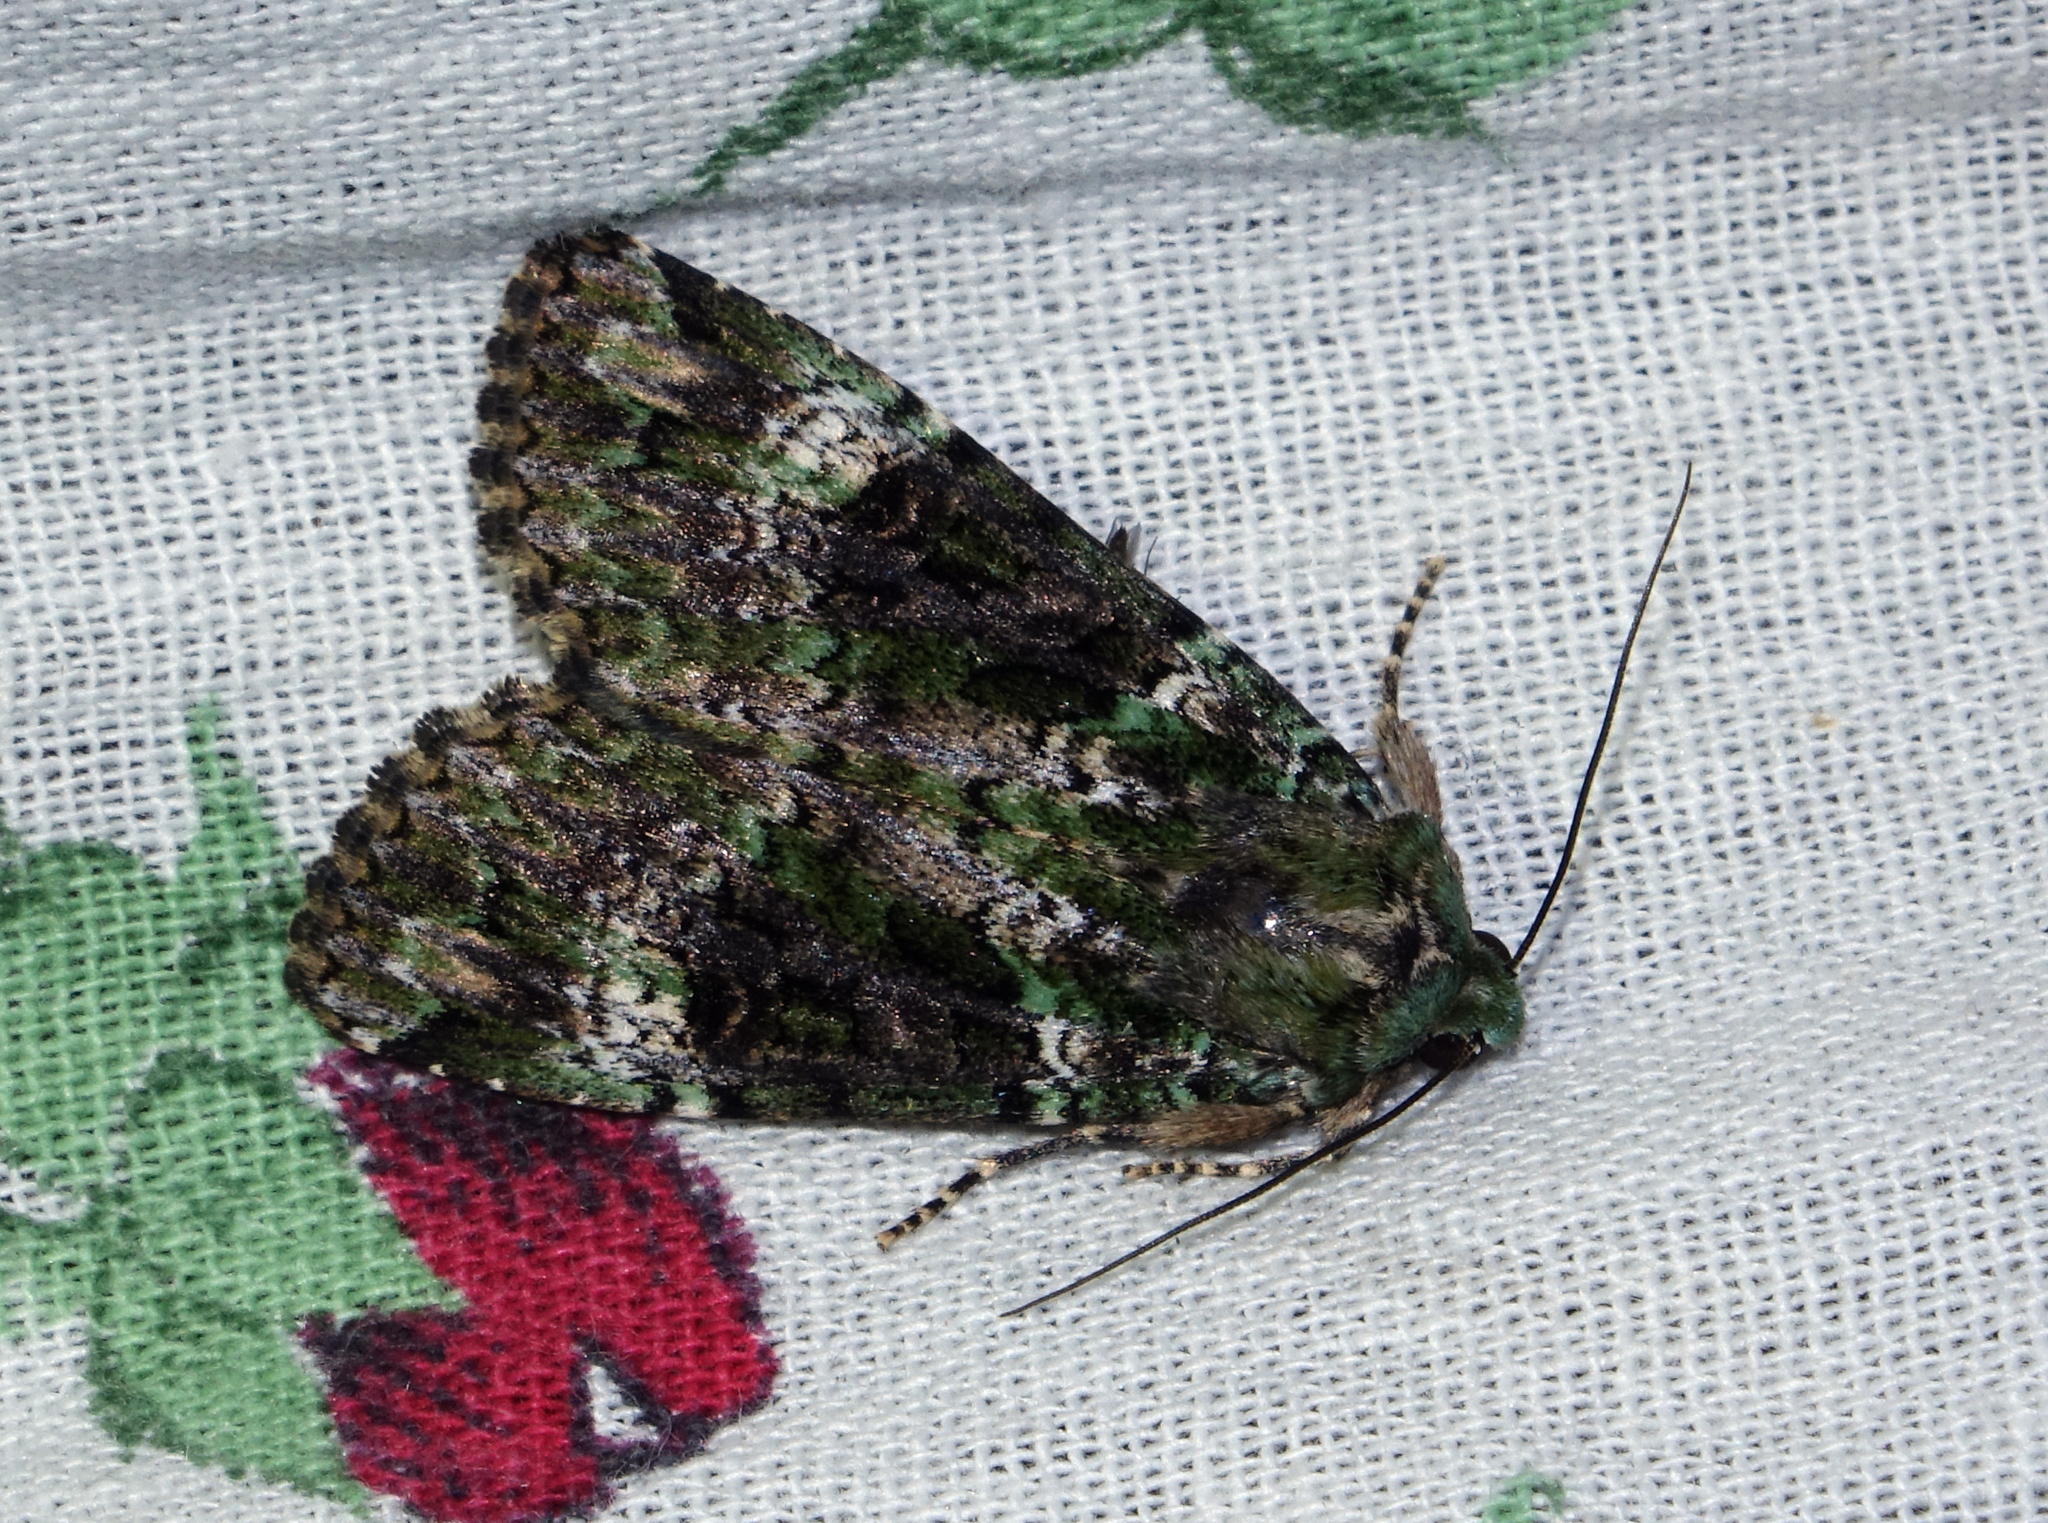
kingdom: Animalia
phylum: Arthropoda
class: Insecta
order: Lepidoptera
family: Noctuidae
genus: Anaplectoides
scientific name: Anaplectoides prasina
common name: Green arches
